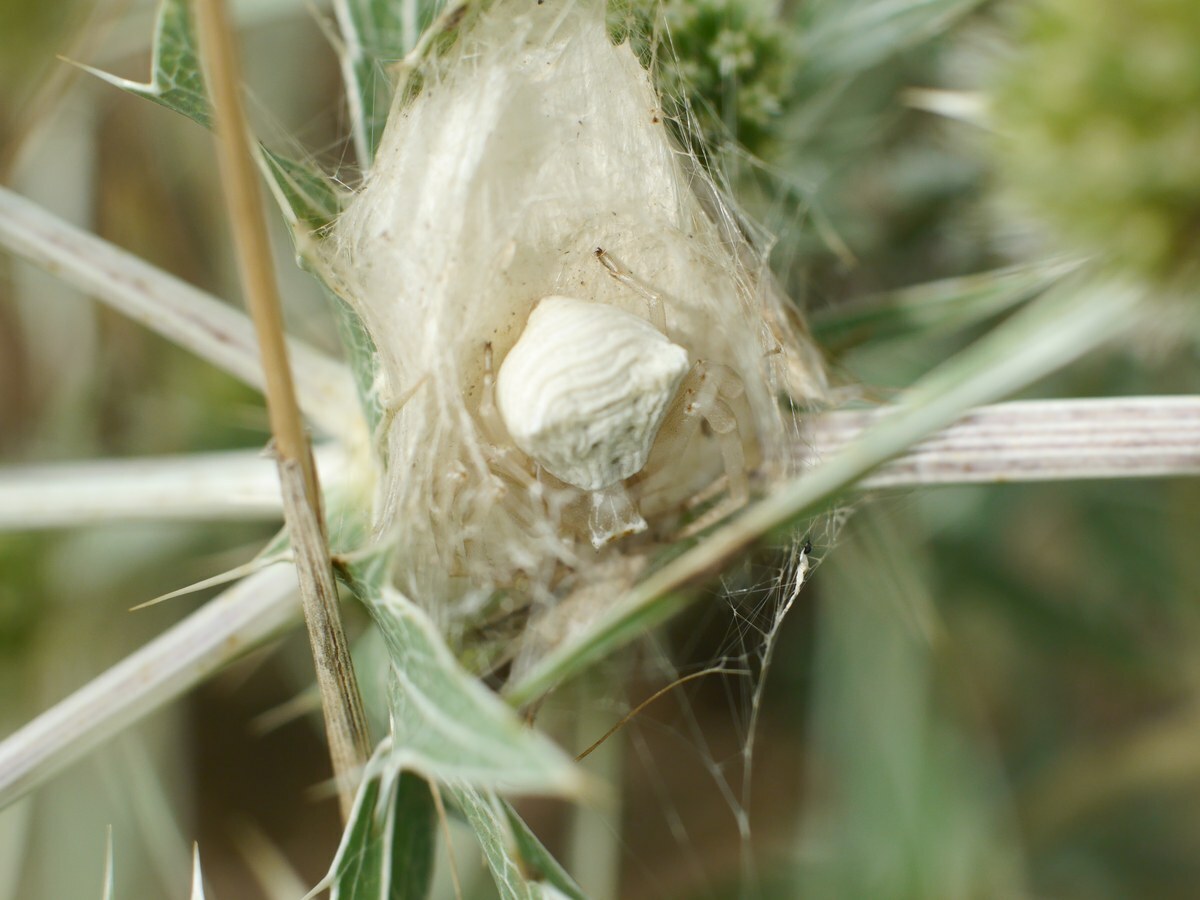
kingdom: Animalia
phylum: Arthropoda
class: Arachnida
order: Araneae
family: Thomisidae
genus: Thomisus
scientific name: Thomisus onustus
